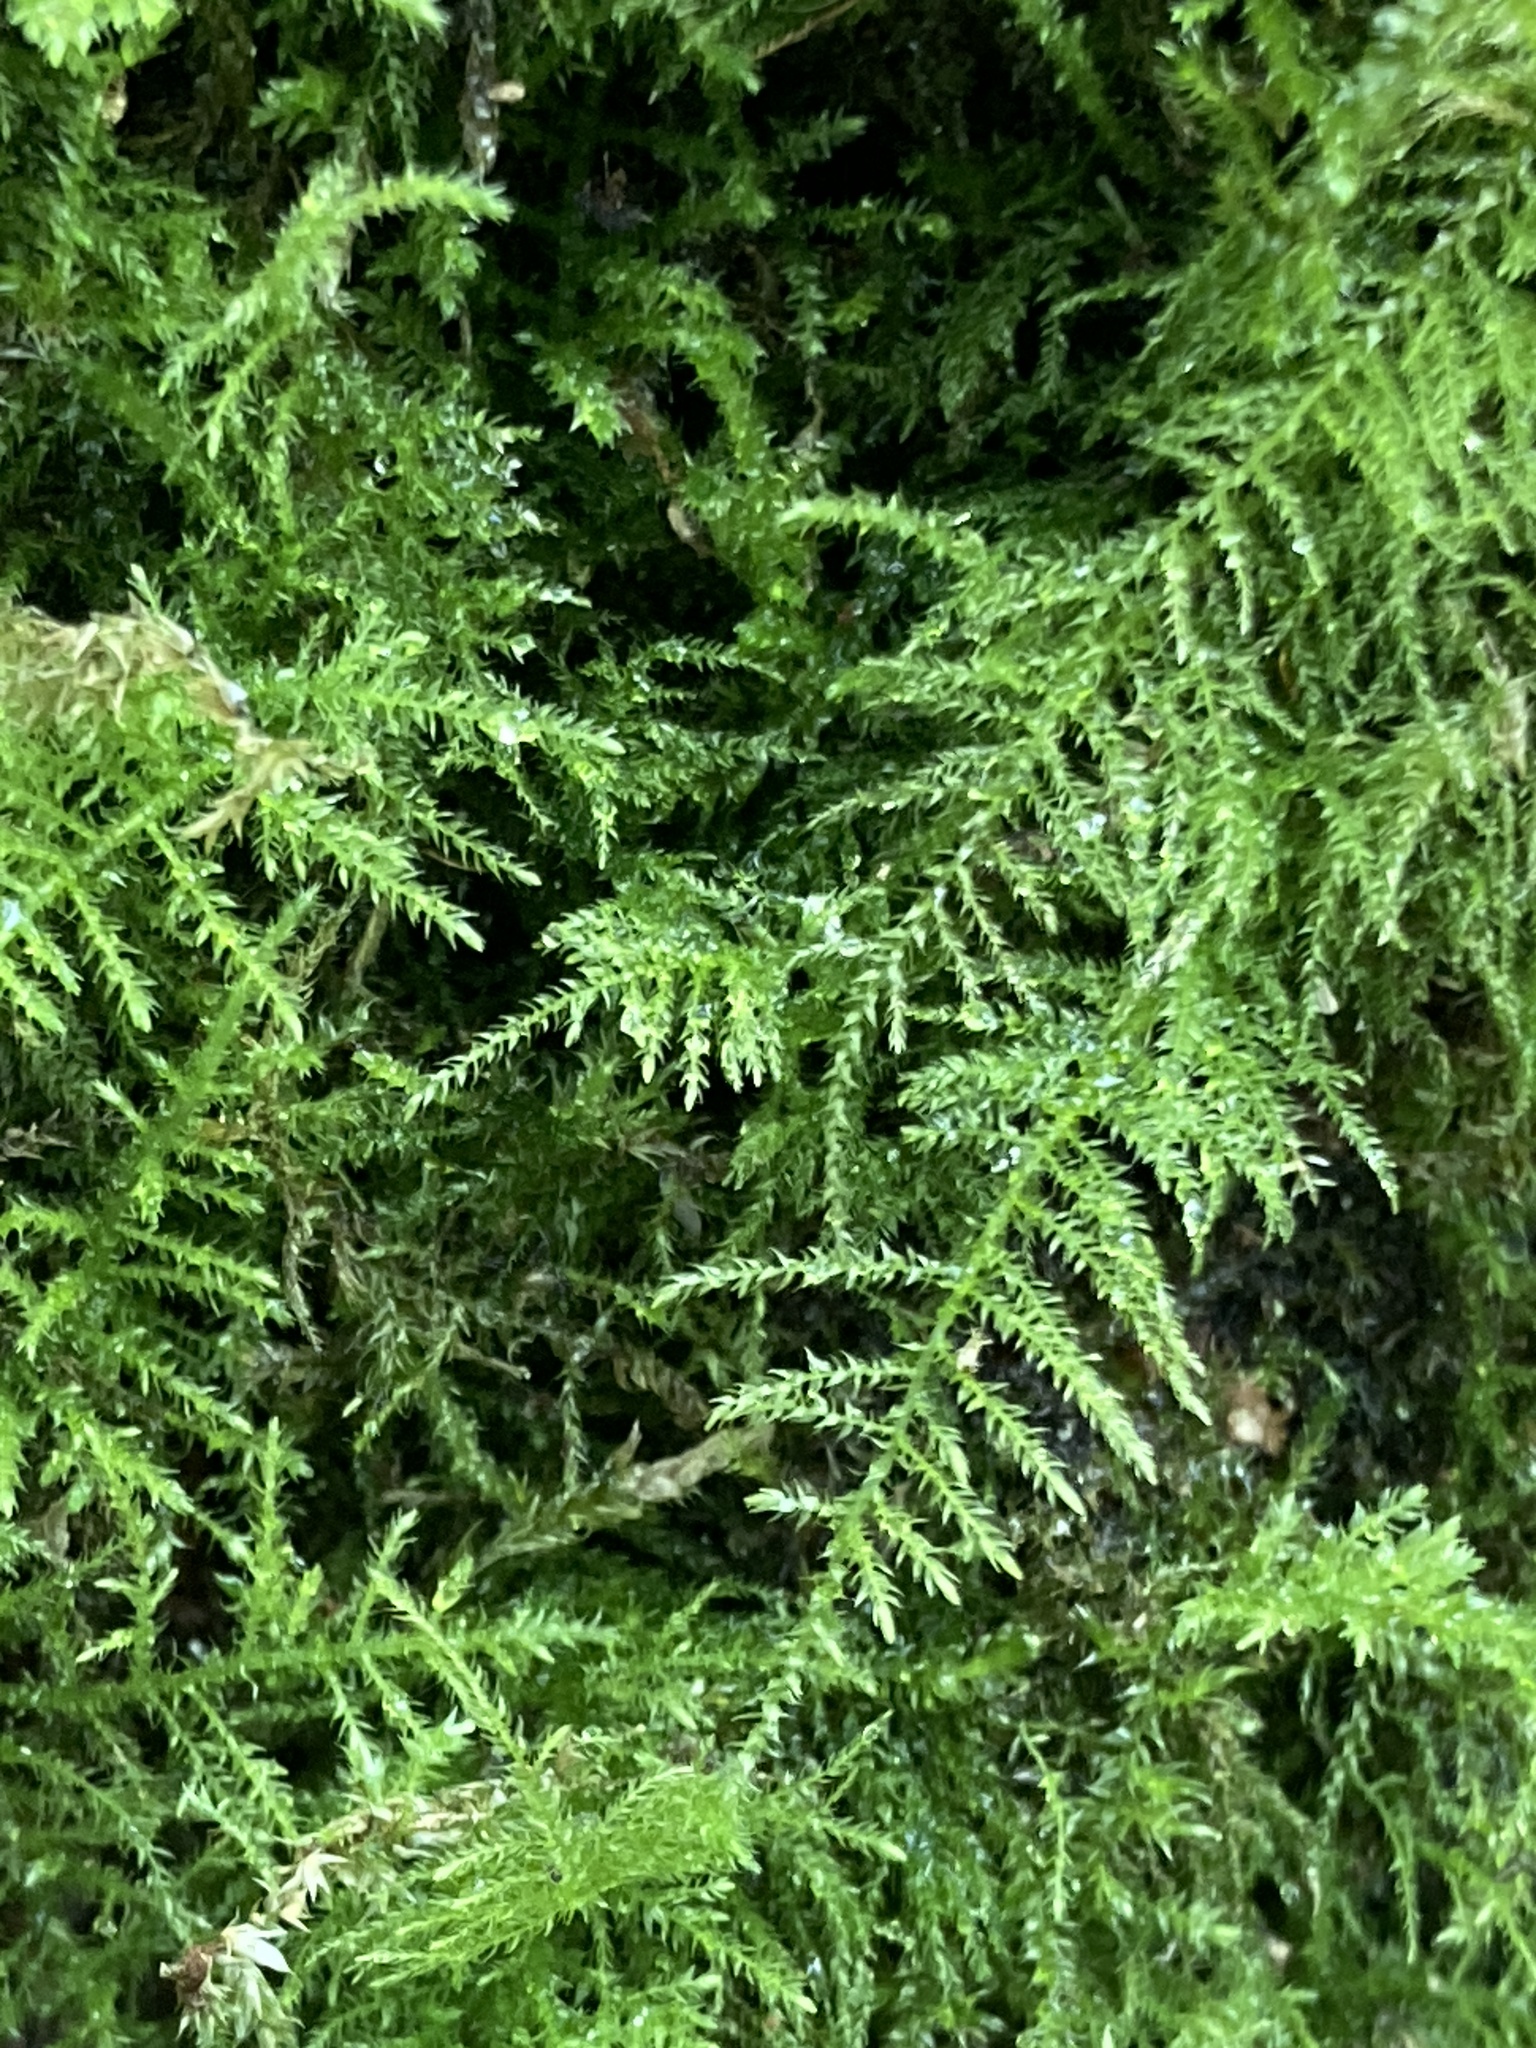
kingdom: Plantae
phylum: Bryophyta
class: Bryopsida
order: Hypnales
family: Brachytheciaceae
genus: Kindbergia
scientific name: Kindbergia praelonga
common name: Slender beaked moss
